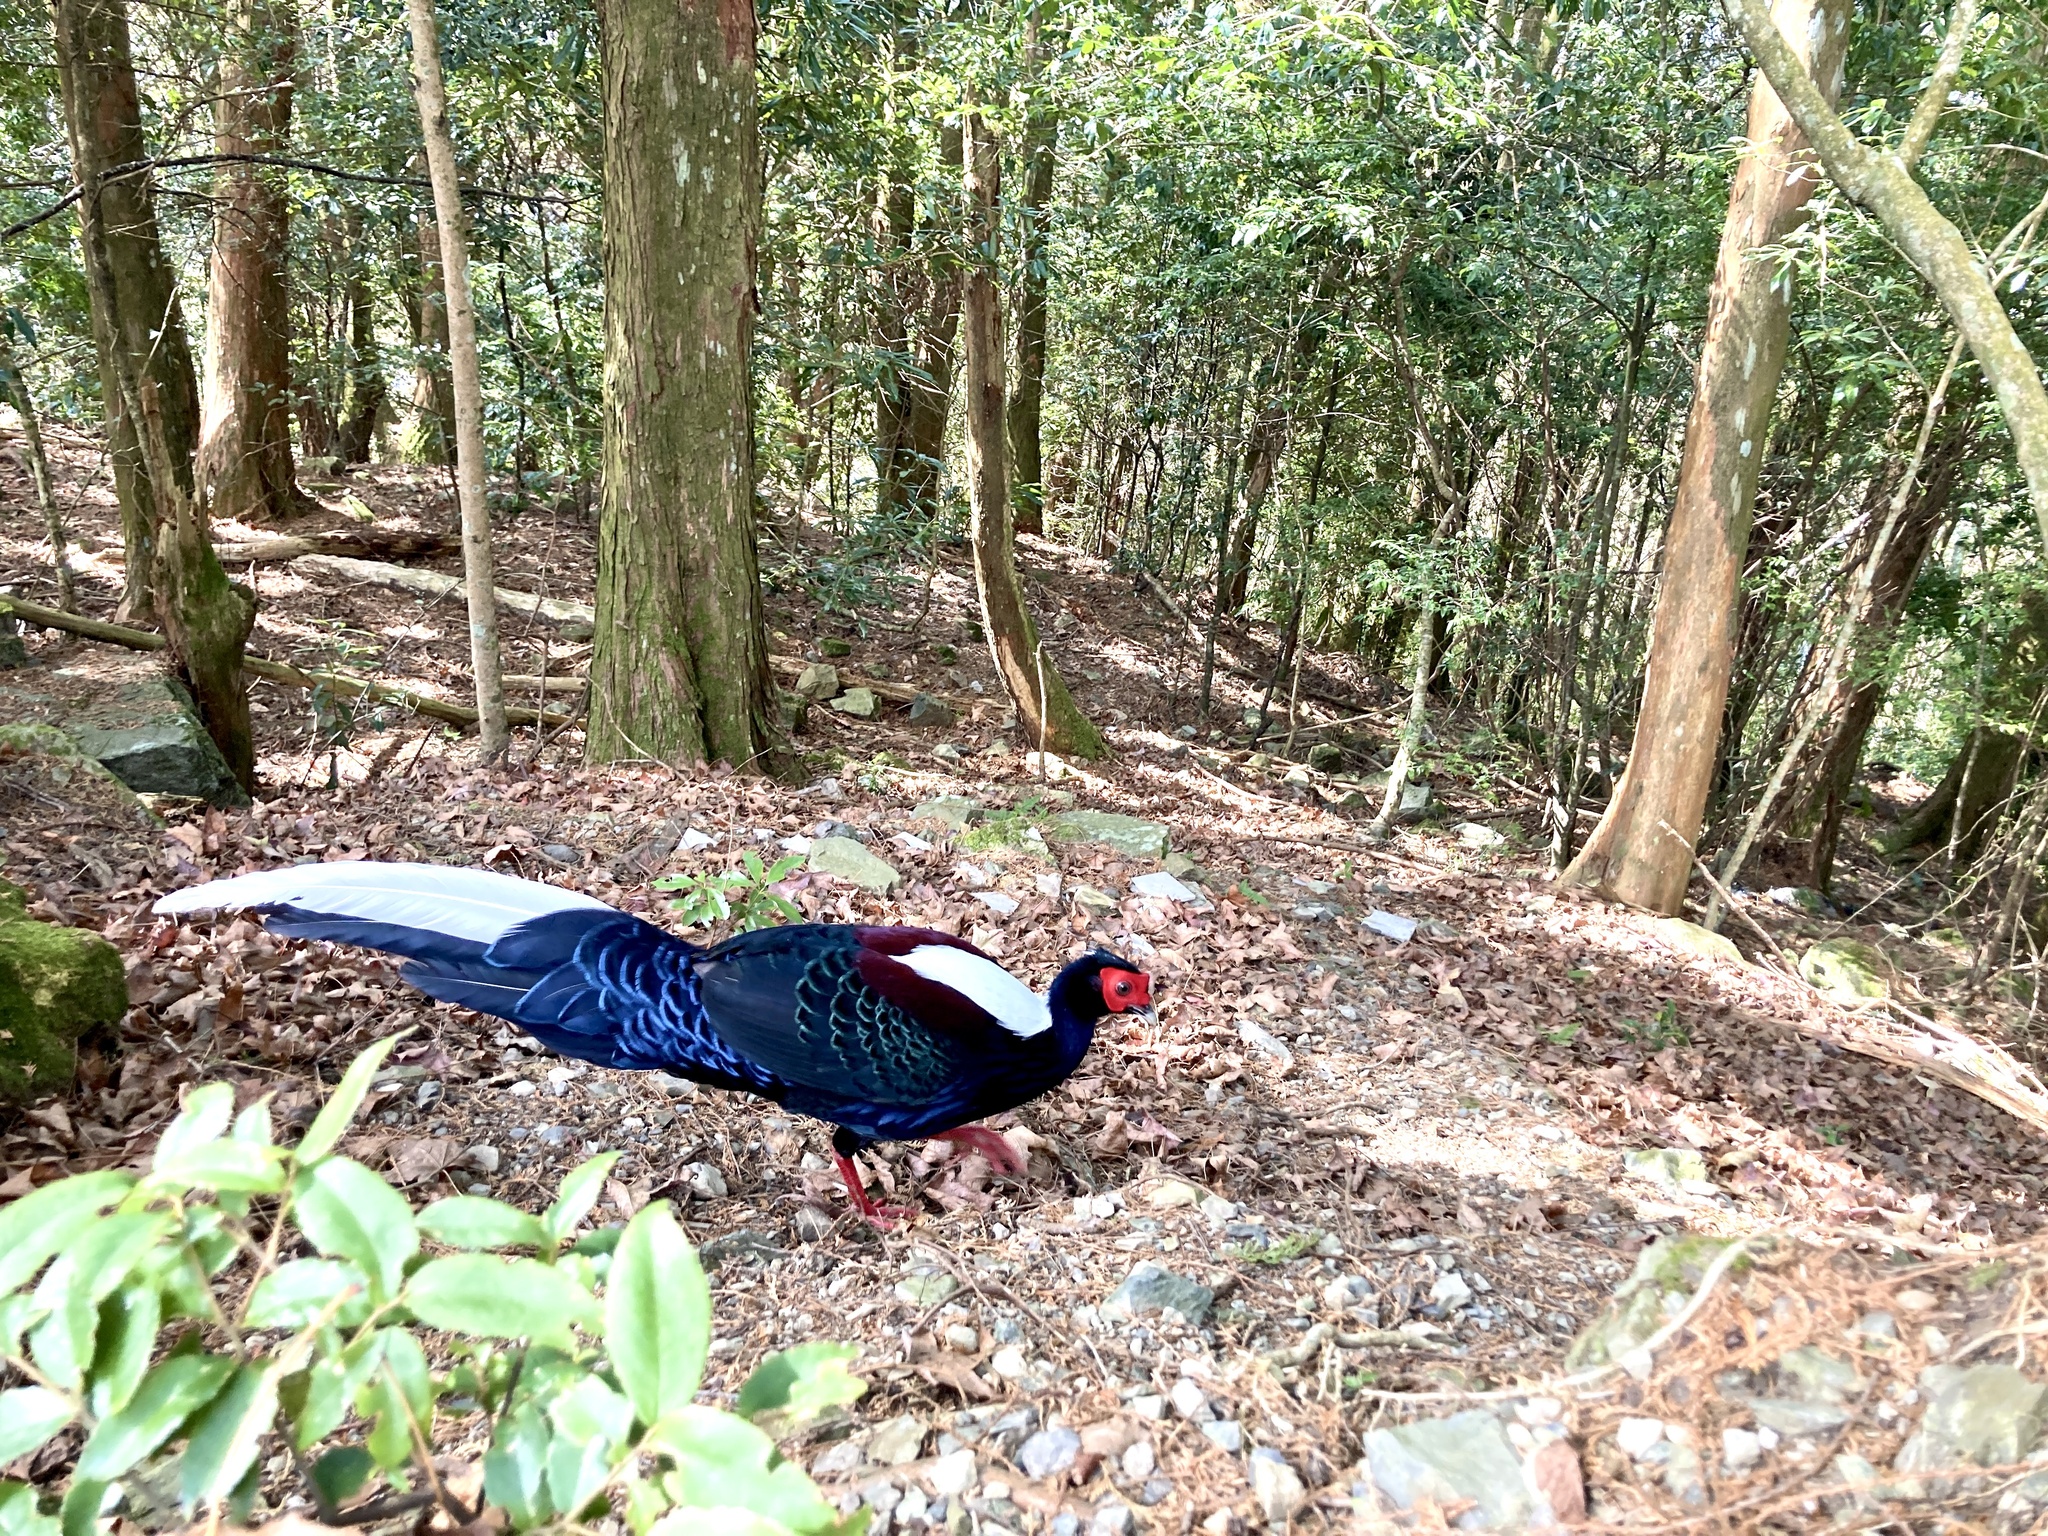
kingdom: Animalia
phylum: Chordata
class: Aves
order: Galliformes
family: Phasianidae
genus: Lophura
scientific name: Lophura swinhoii
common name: Swinhoe's pheasant
